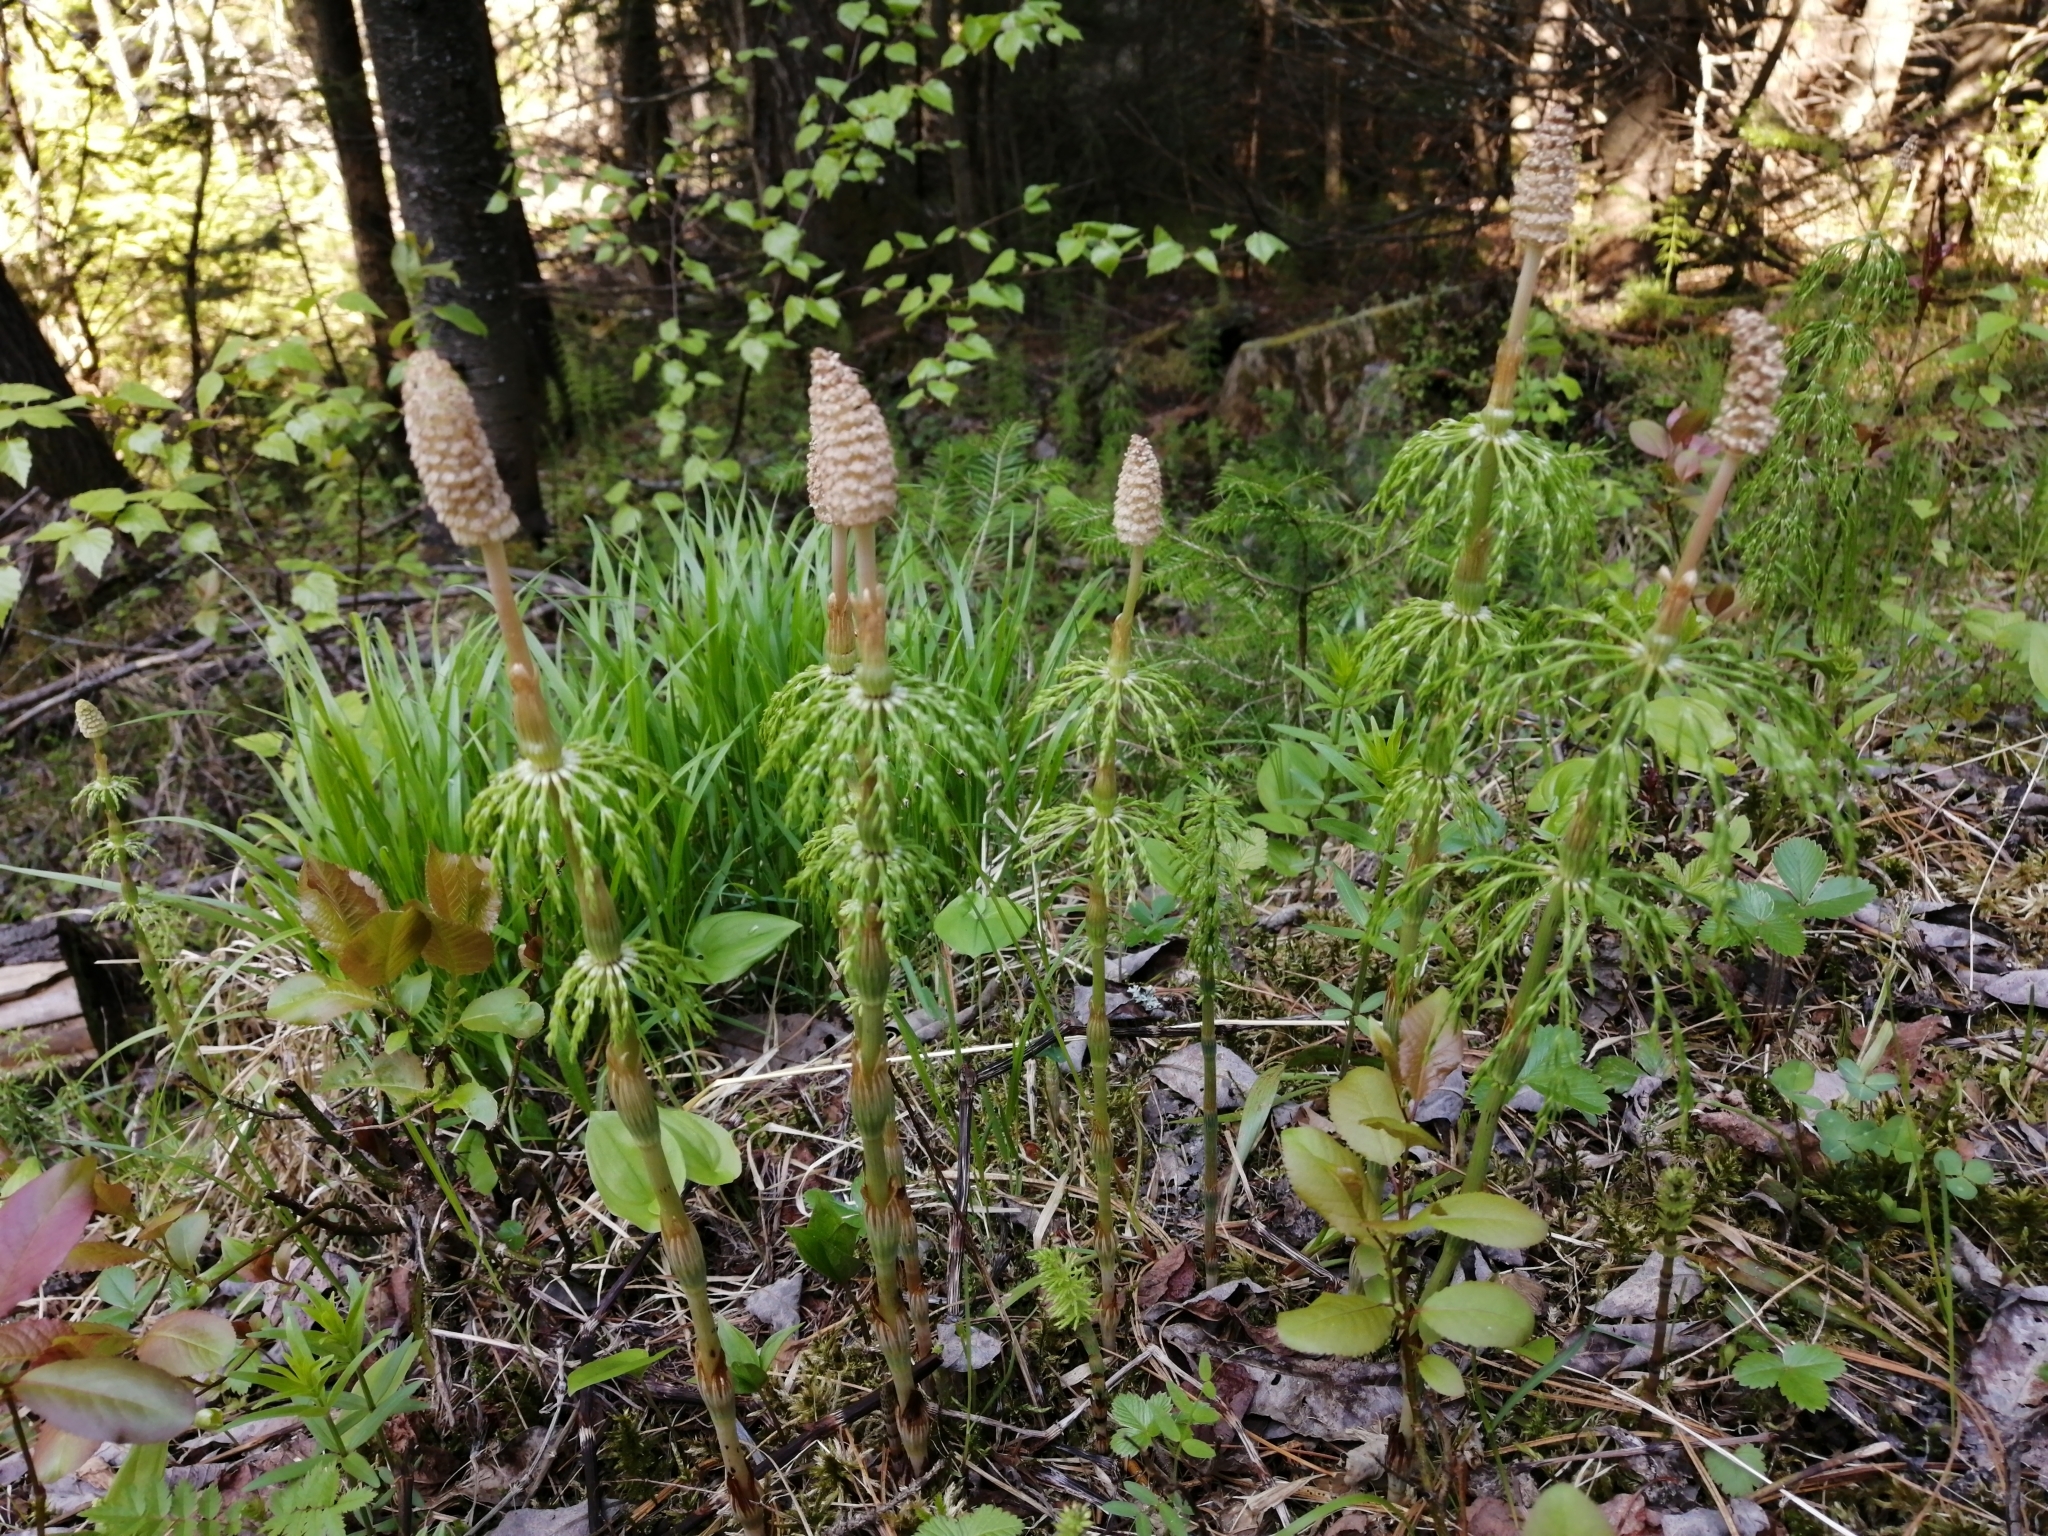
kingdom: Plantae
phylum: Tracheophyta
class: Polypodiopsida
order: Equisetales
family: Equisetaceae
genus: Equisetum
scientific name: Equisetum sylvaticum
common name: Wood horsetail
